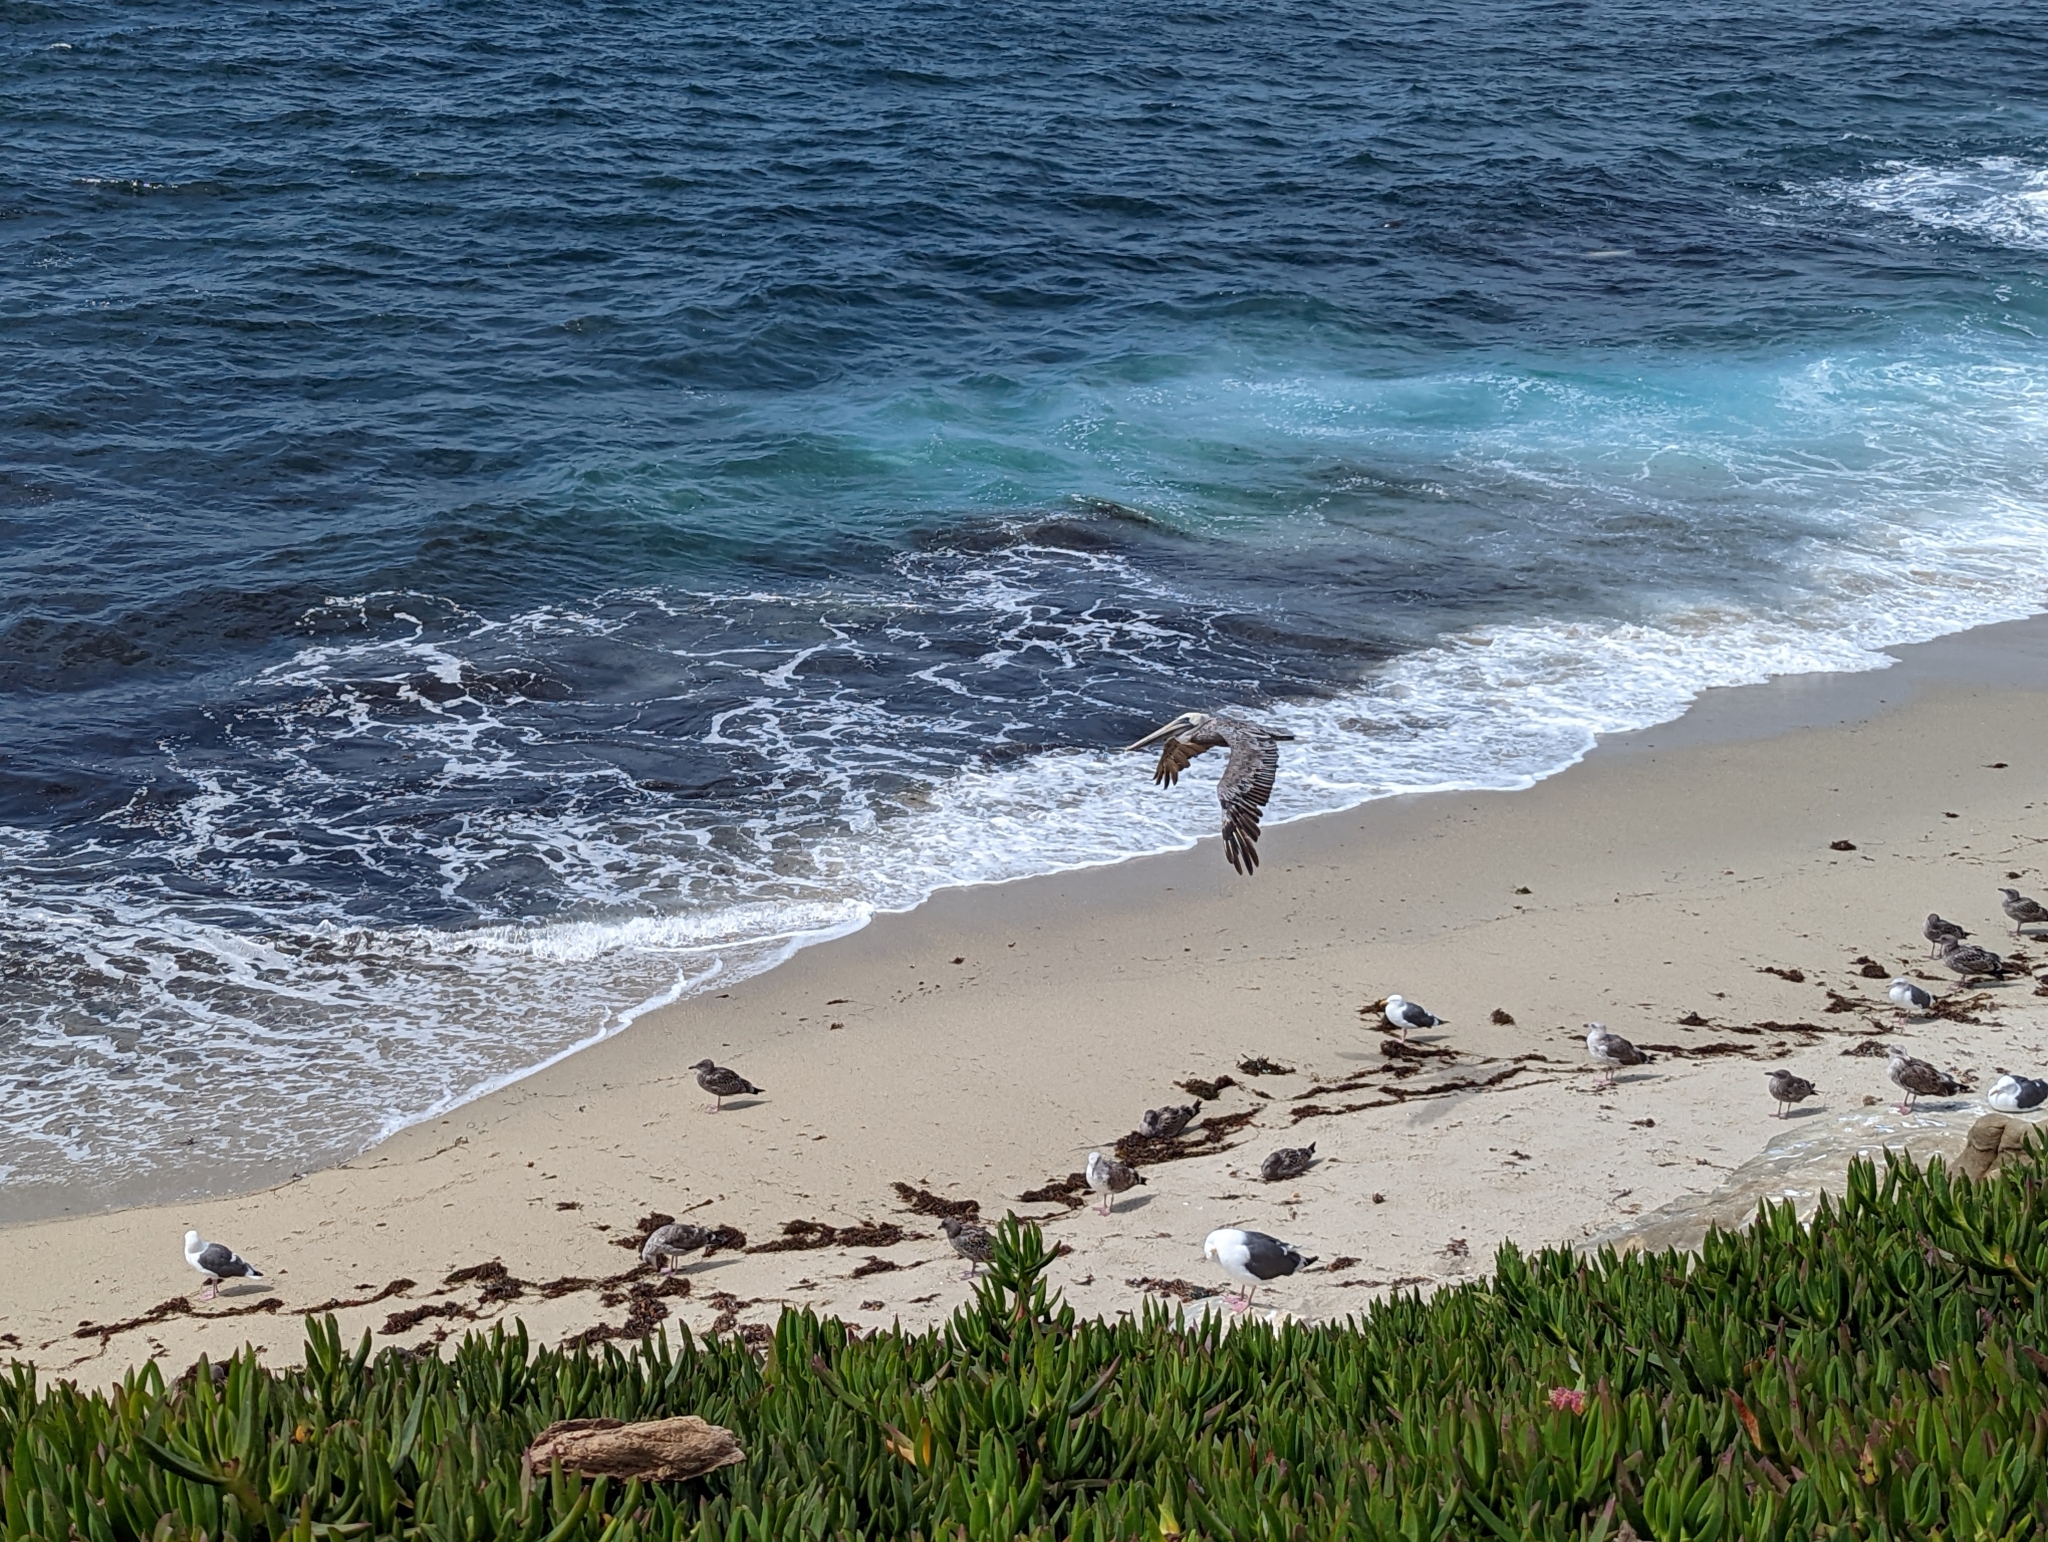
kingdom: Animalia
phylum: Chordata
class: Aves
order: Pelecaniformes
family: Pelecanidae
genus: Pelecanus
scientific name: Pelecanus occidentalis
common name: Brown pelican
